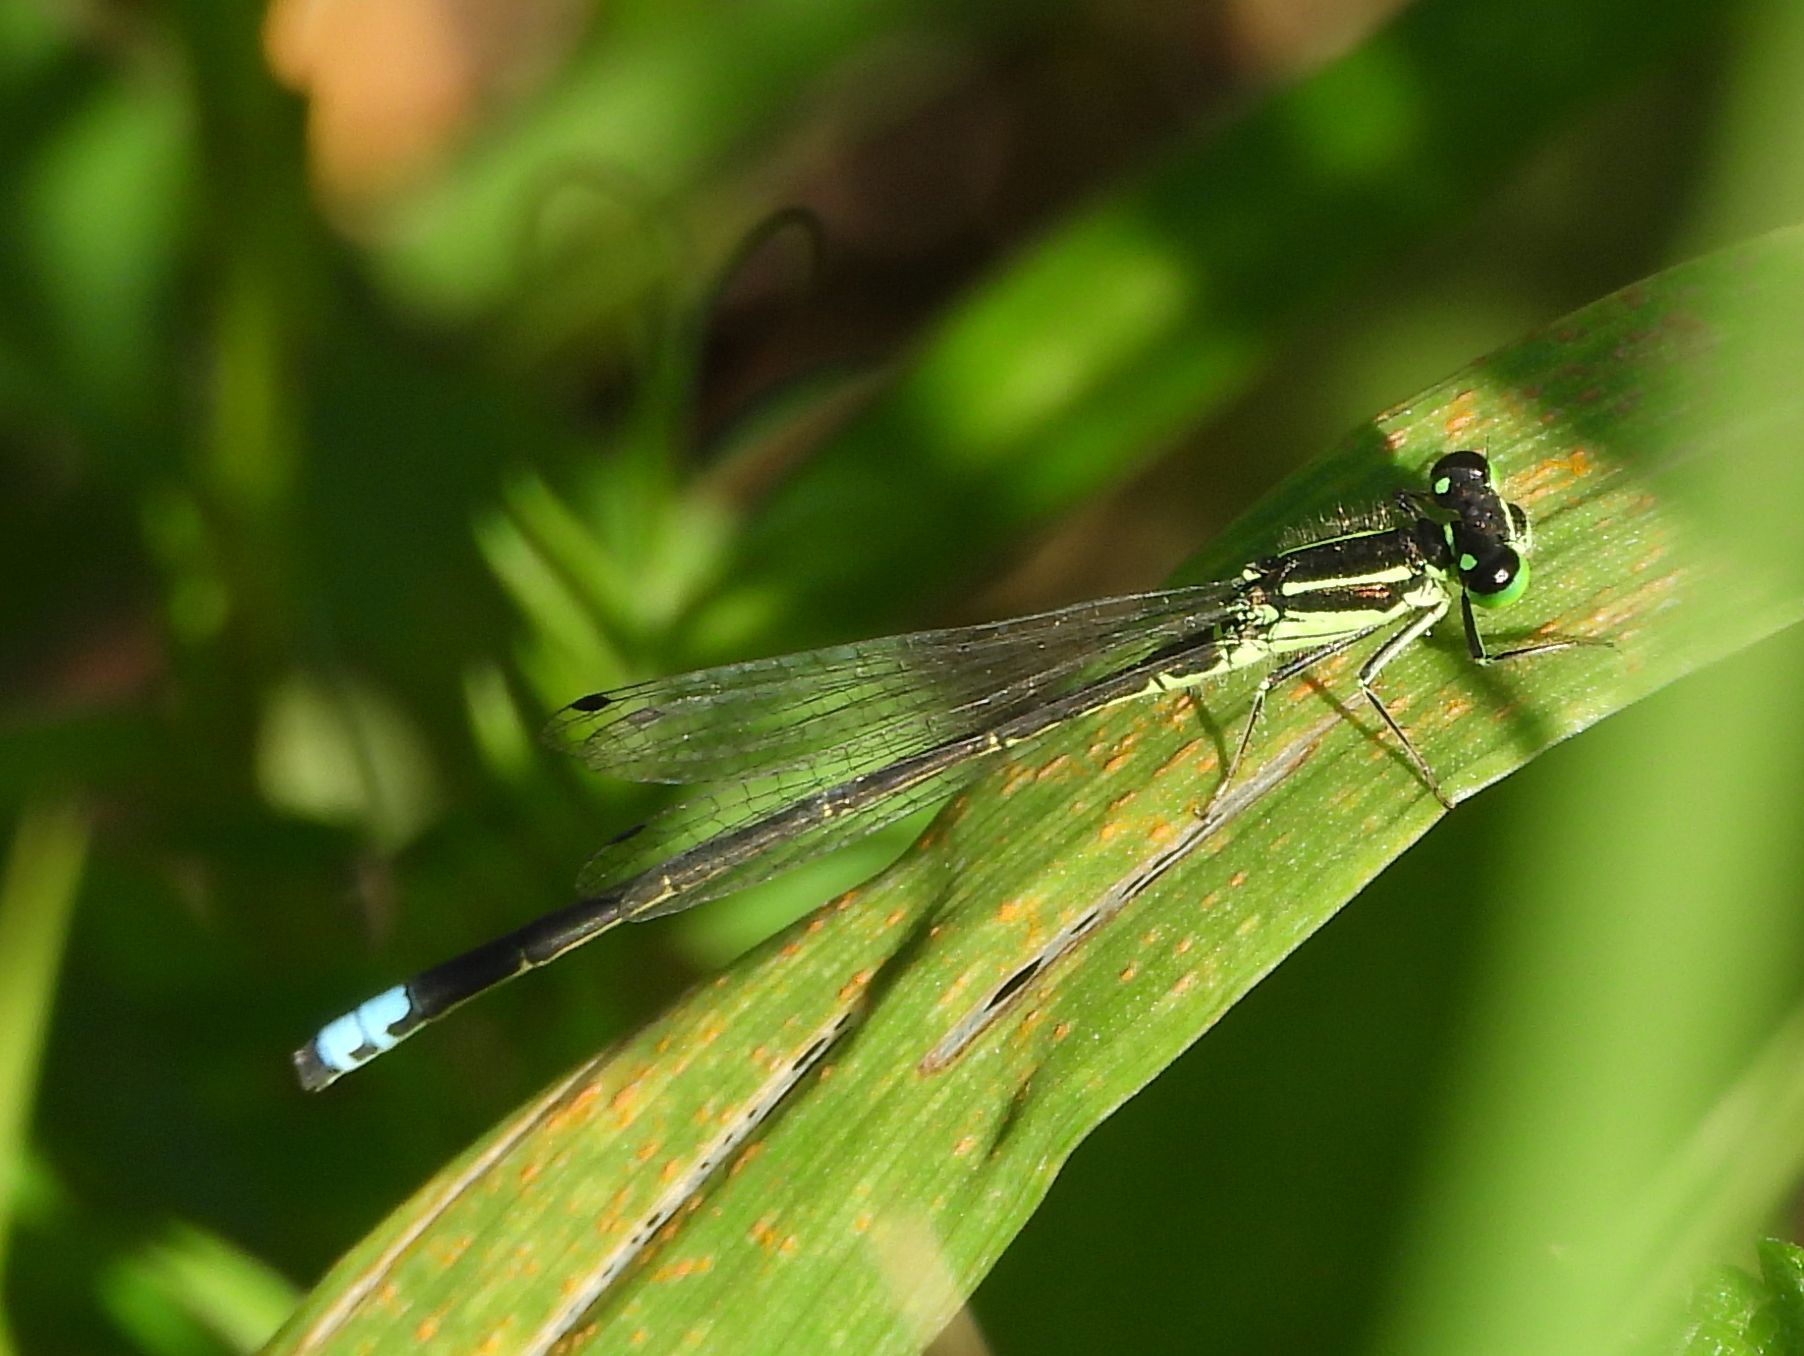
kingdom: Animalia
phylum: Arthropoda
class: Insecta
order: Odonata
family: Coenagrionidae
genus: Ischnura
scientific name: Ischnura verticalis
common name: Eastern forktail
